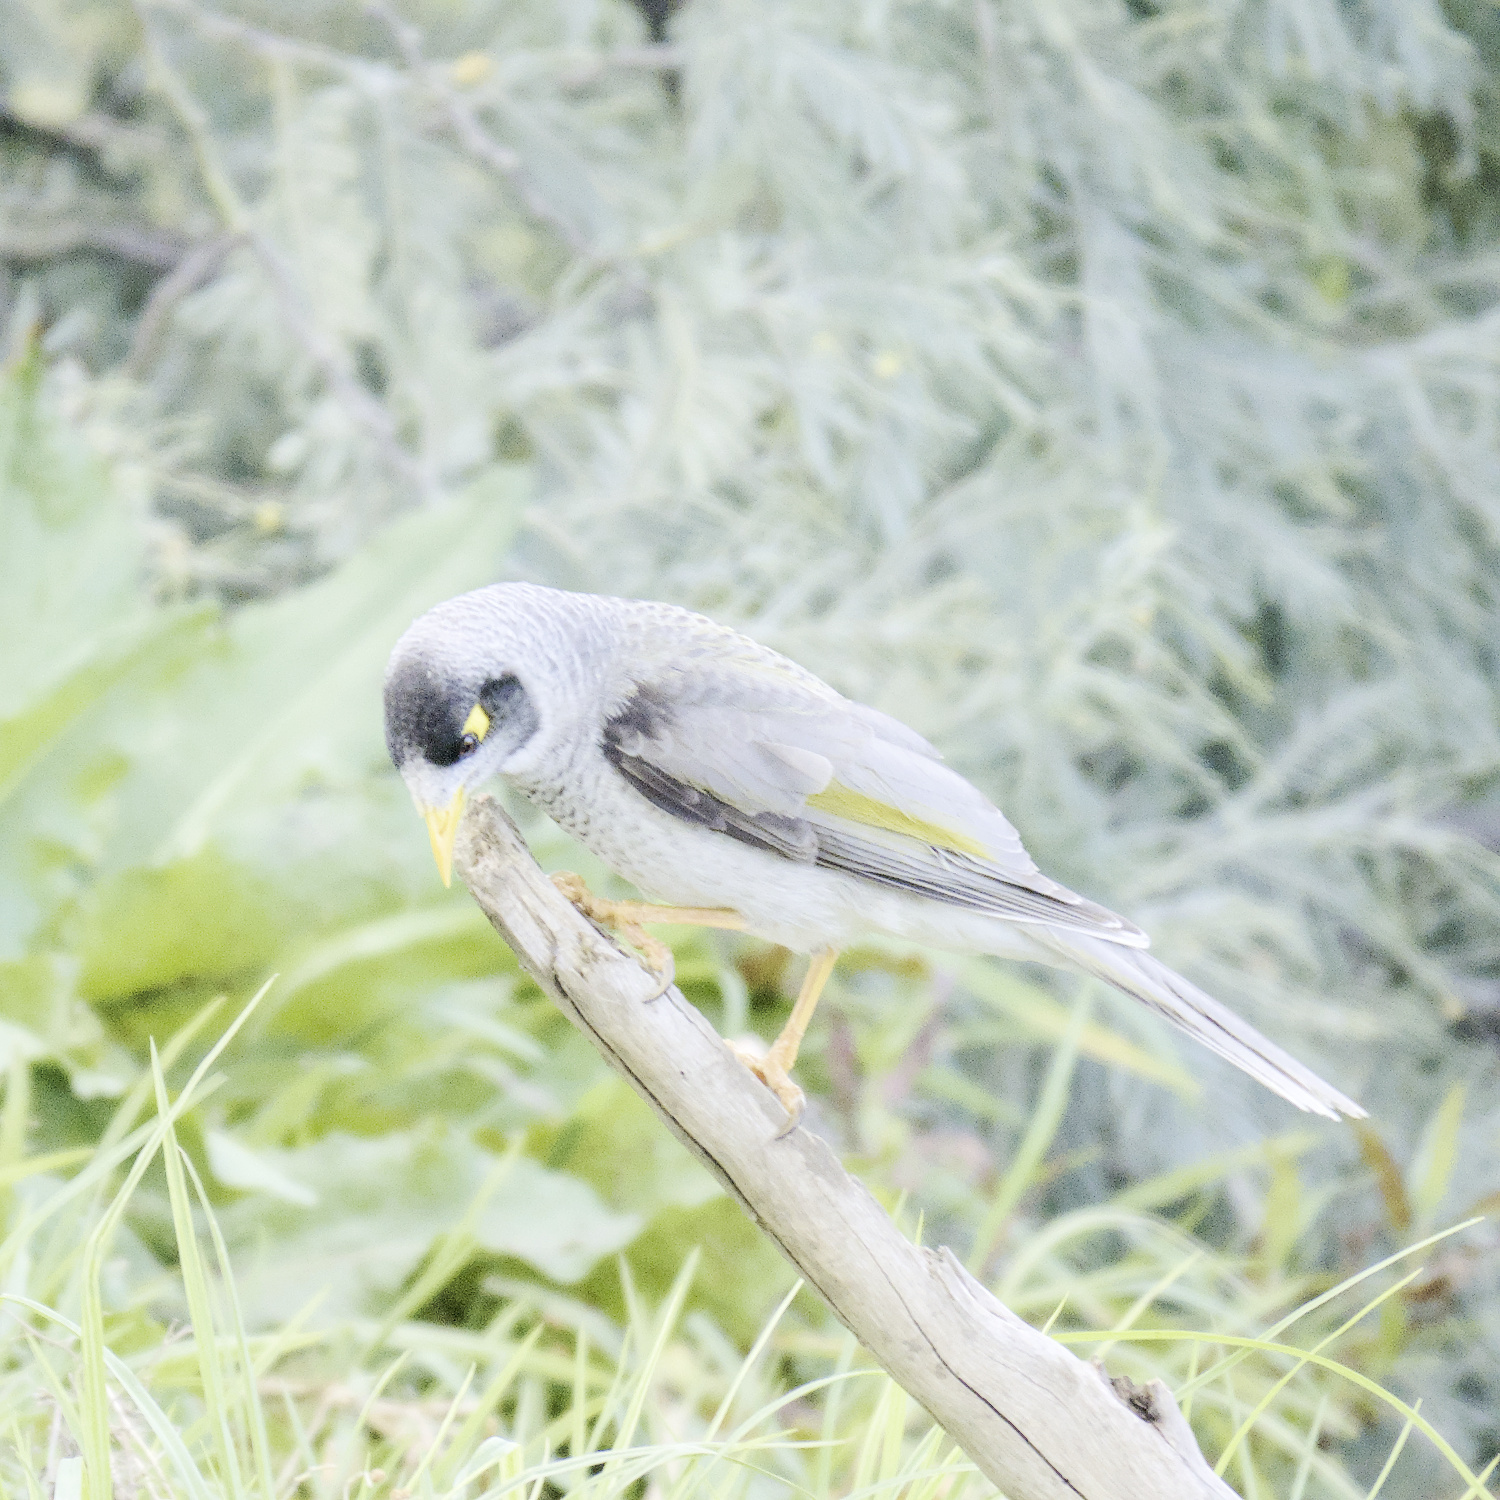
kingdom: Animalia
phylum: Chordata
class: Aves
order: Passeriformes
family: Meliphagidae
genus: Manorina
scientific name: Manorina melanocephala
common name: Noisy miner
